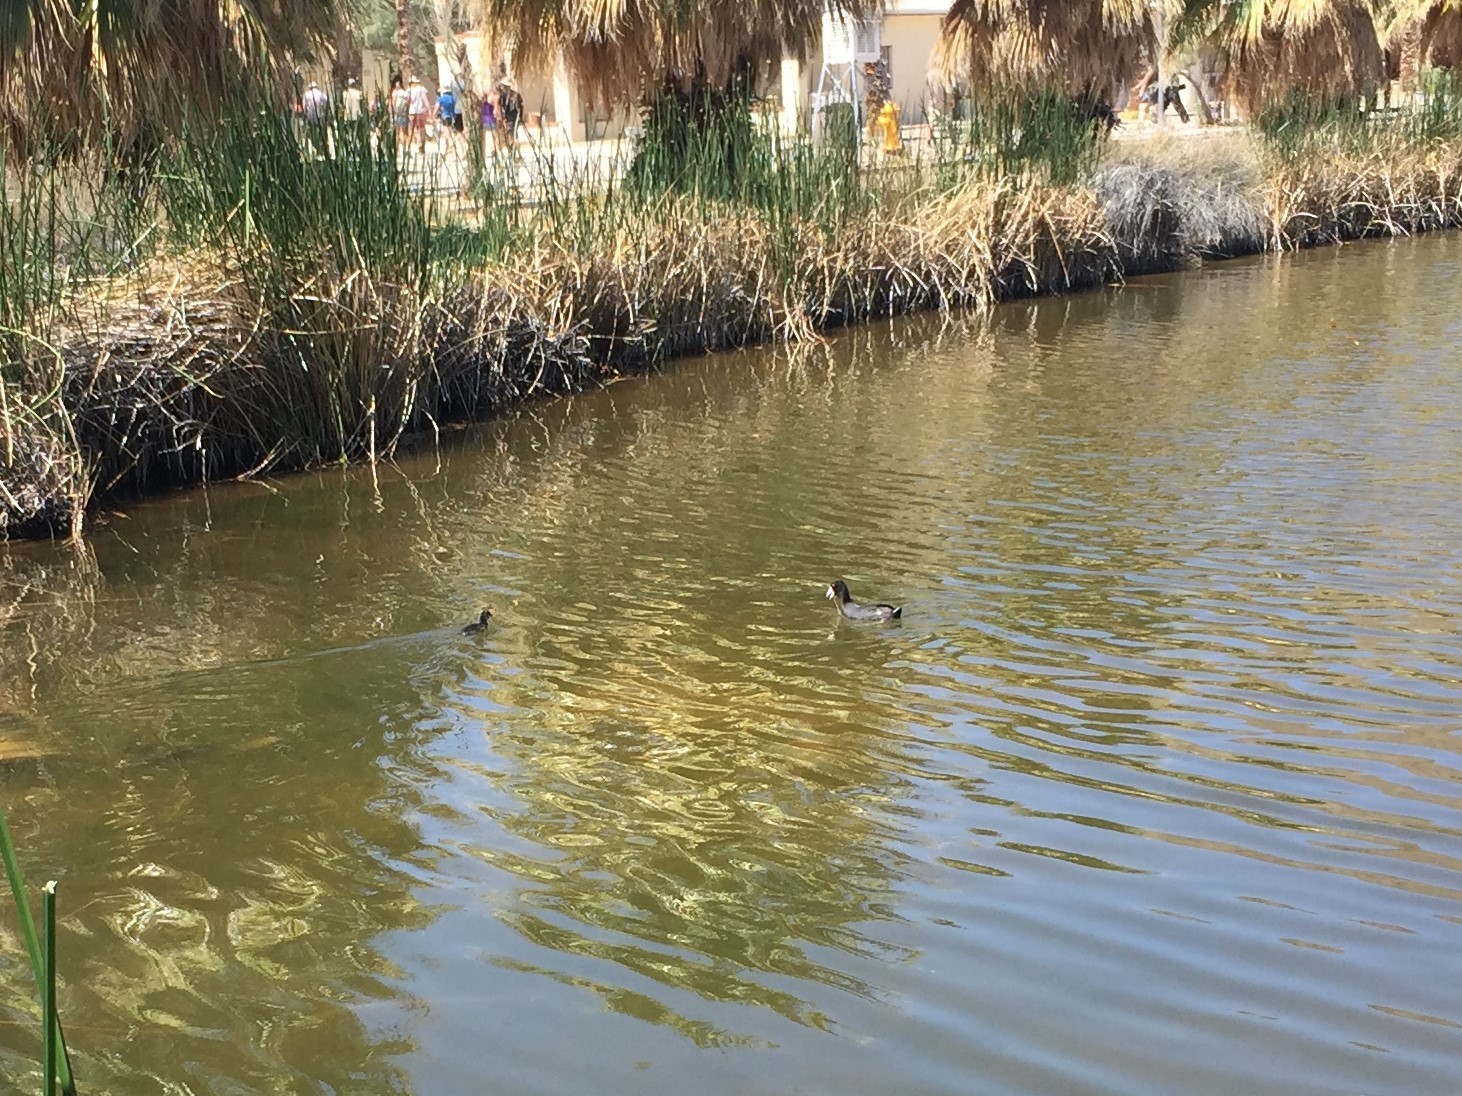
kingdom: Animalia
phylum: Chordata
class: Aves
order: Gruiformes
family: Rallidae
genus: Fulica
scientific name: Fulica americana
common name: American coot
